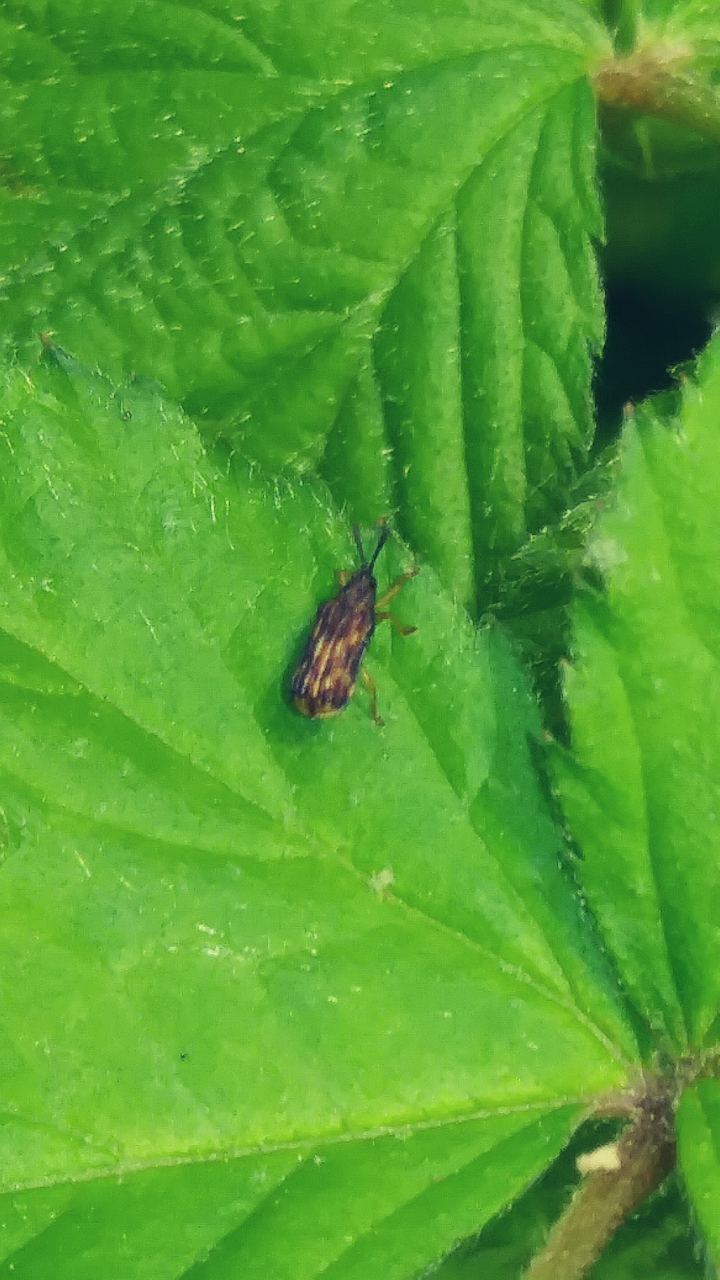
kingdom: Animalia
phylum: Arthropoda
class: Insecta
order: Coleoptera
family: Chrysomelidae
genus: Sumitrosis
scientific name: Sumitrosis inaequalis
